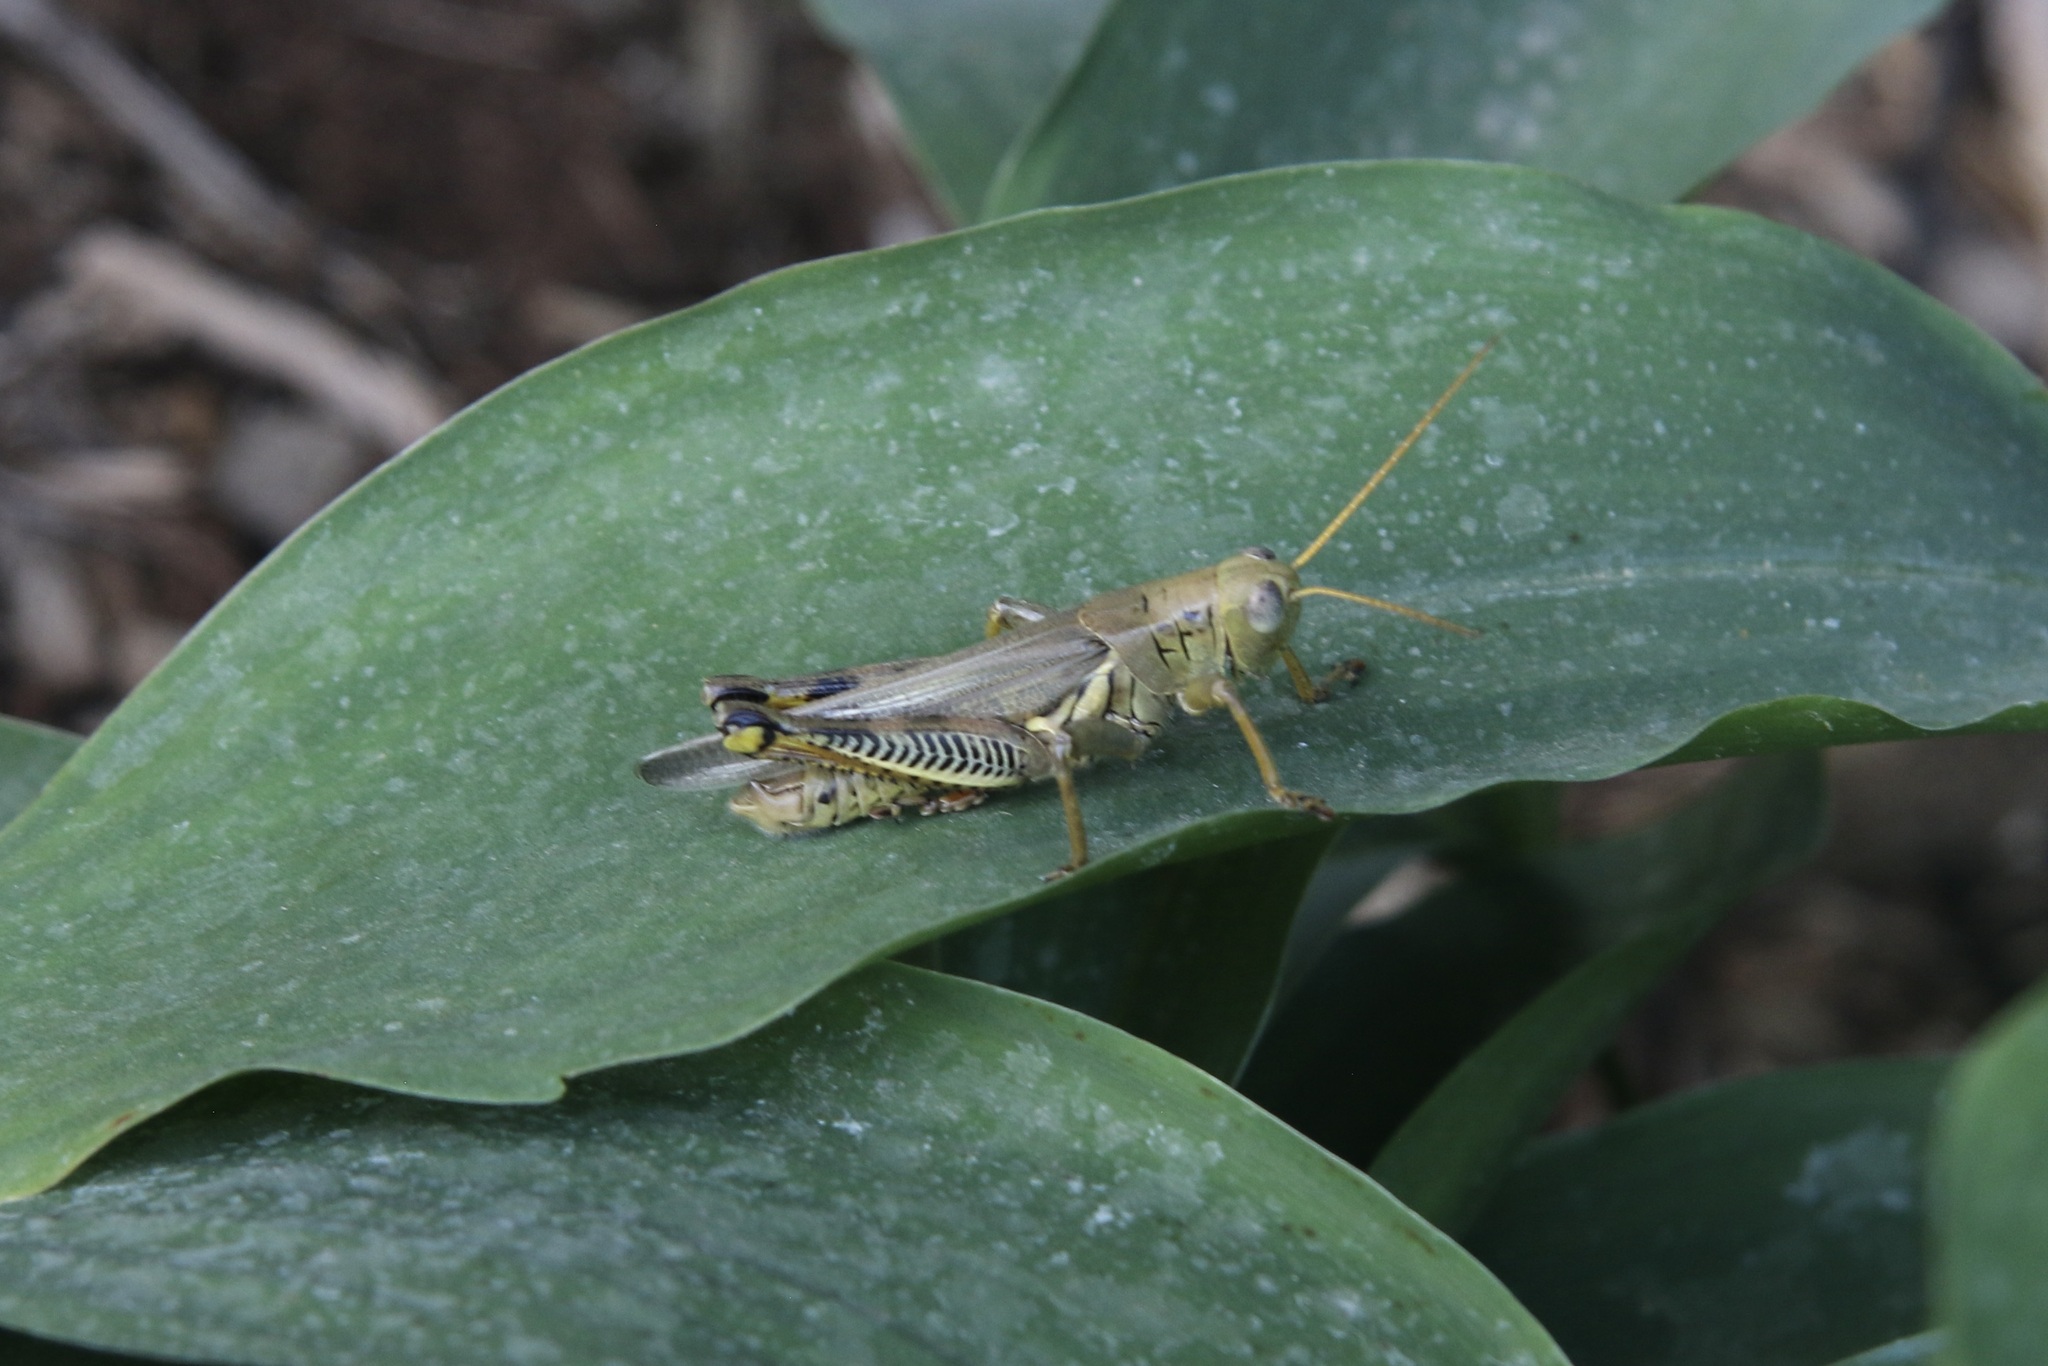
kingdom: Animalia
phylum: Arthropoda
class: Insecta
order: Orthoptera
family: Acrididae
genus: Melanoplus
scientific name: Melanoplus differentialis
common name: Differential grasshopper
